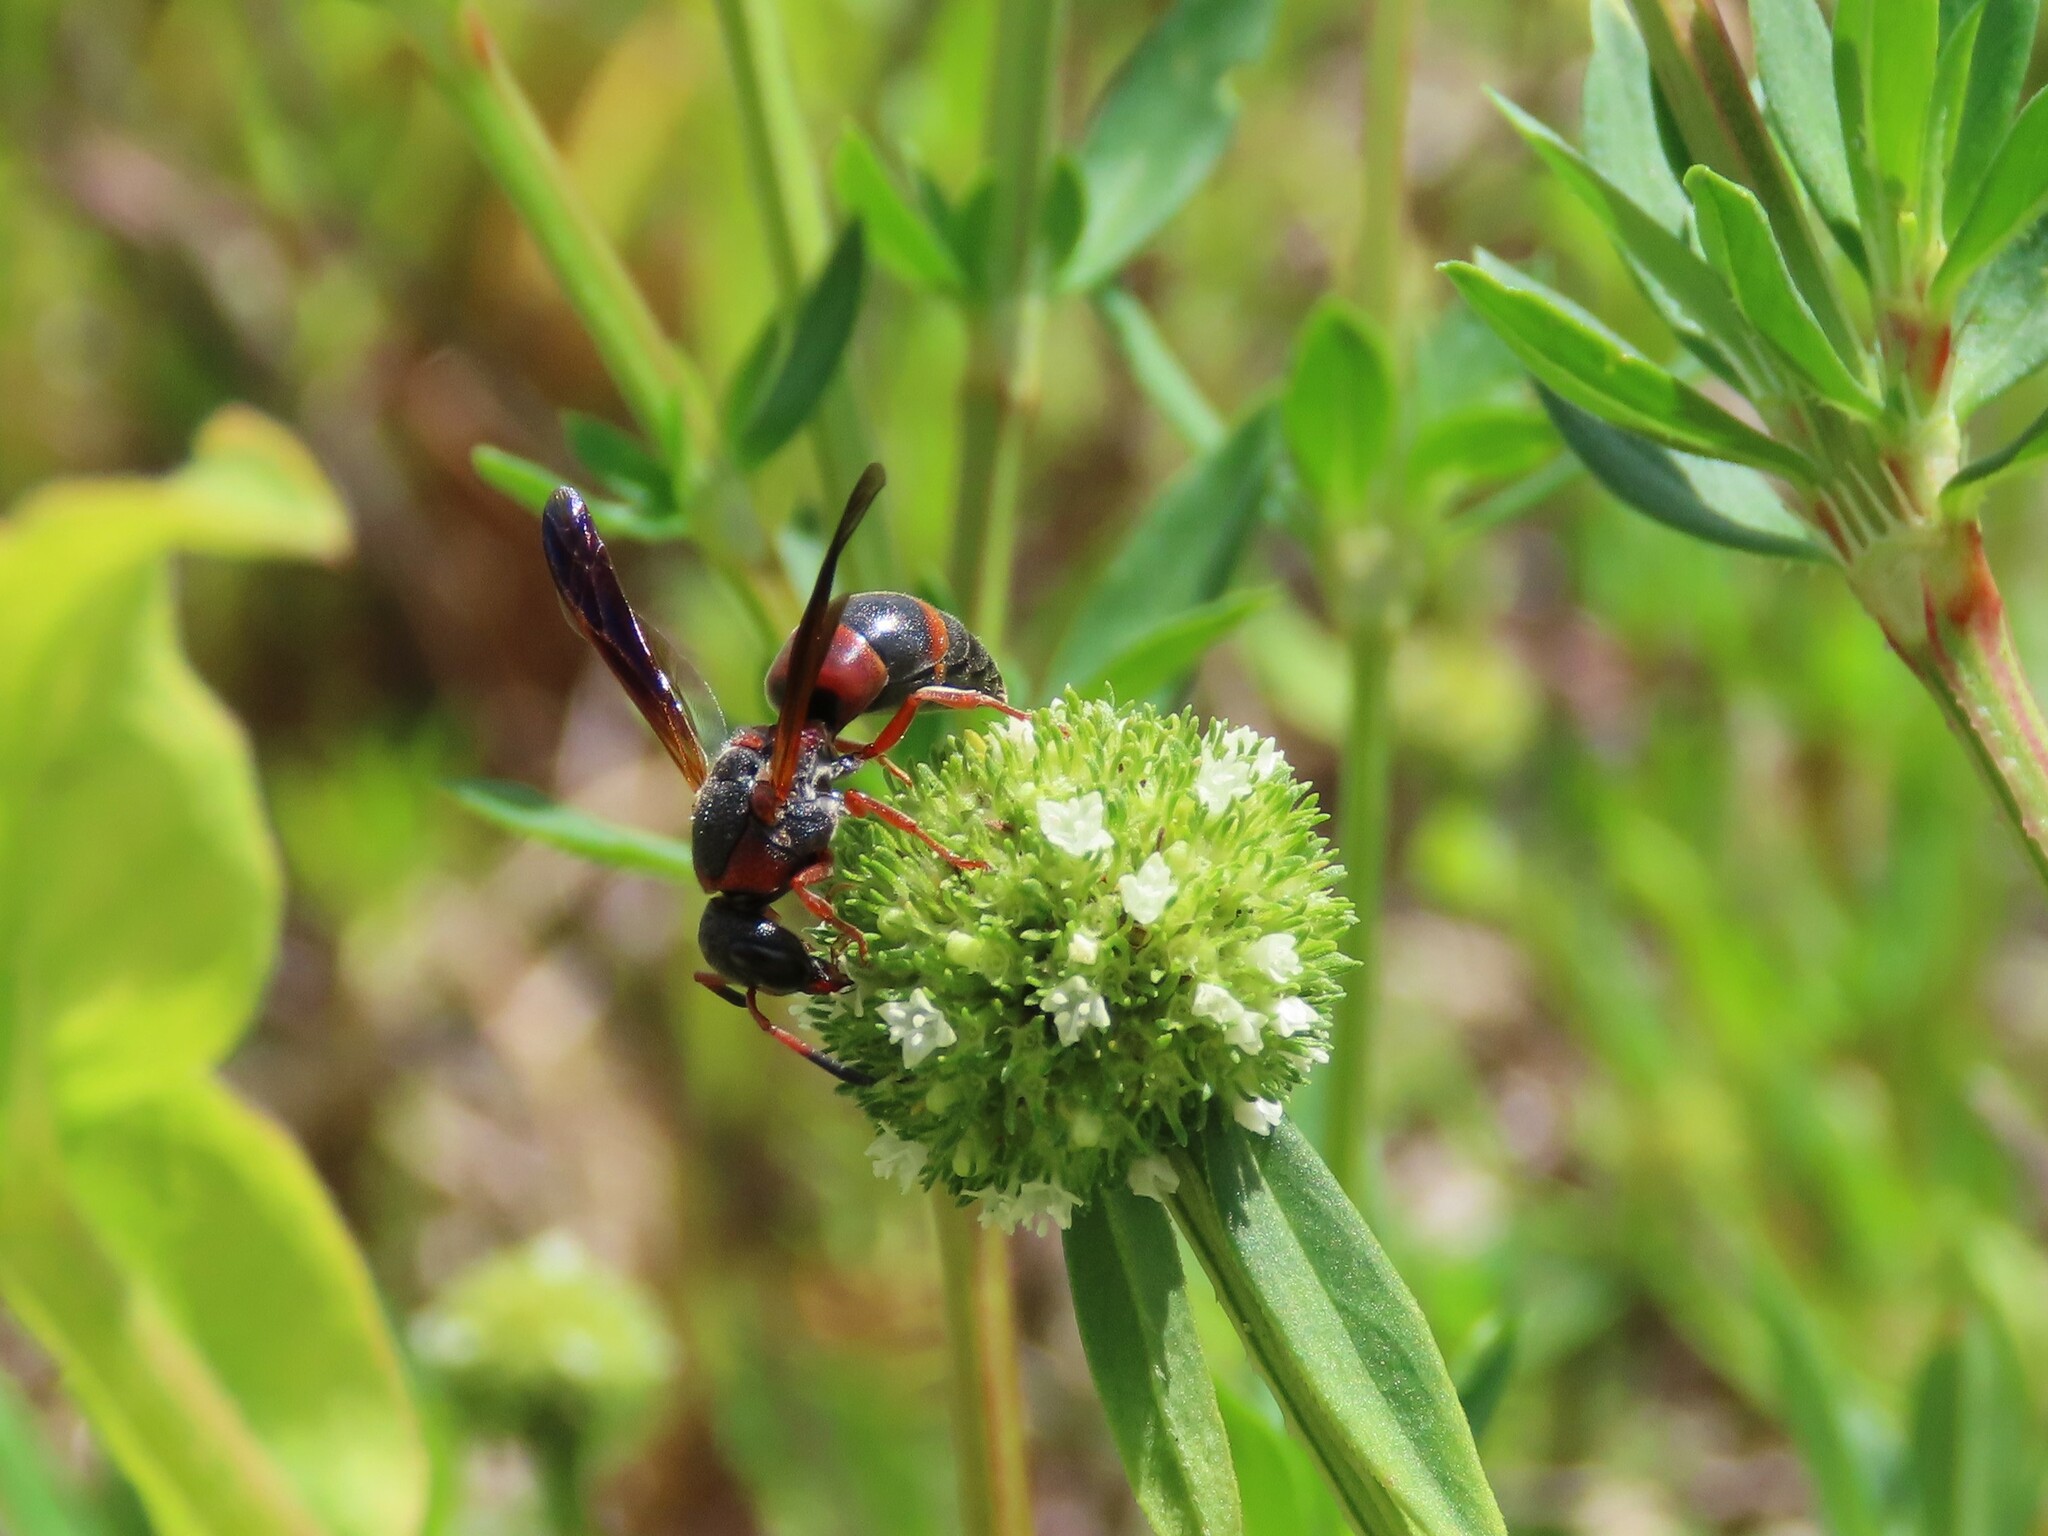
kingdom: Animalia
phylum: Arthropoda
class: Insecta
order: Hymenoptera
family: Eumenidae
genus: Pachodynerus
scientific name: Pachodynerus erynnis
